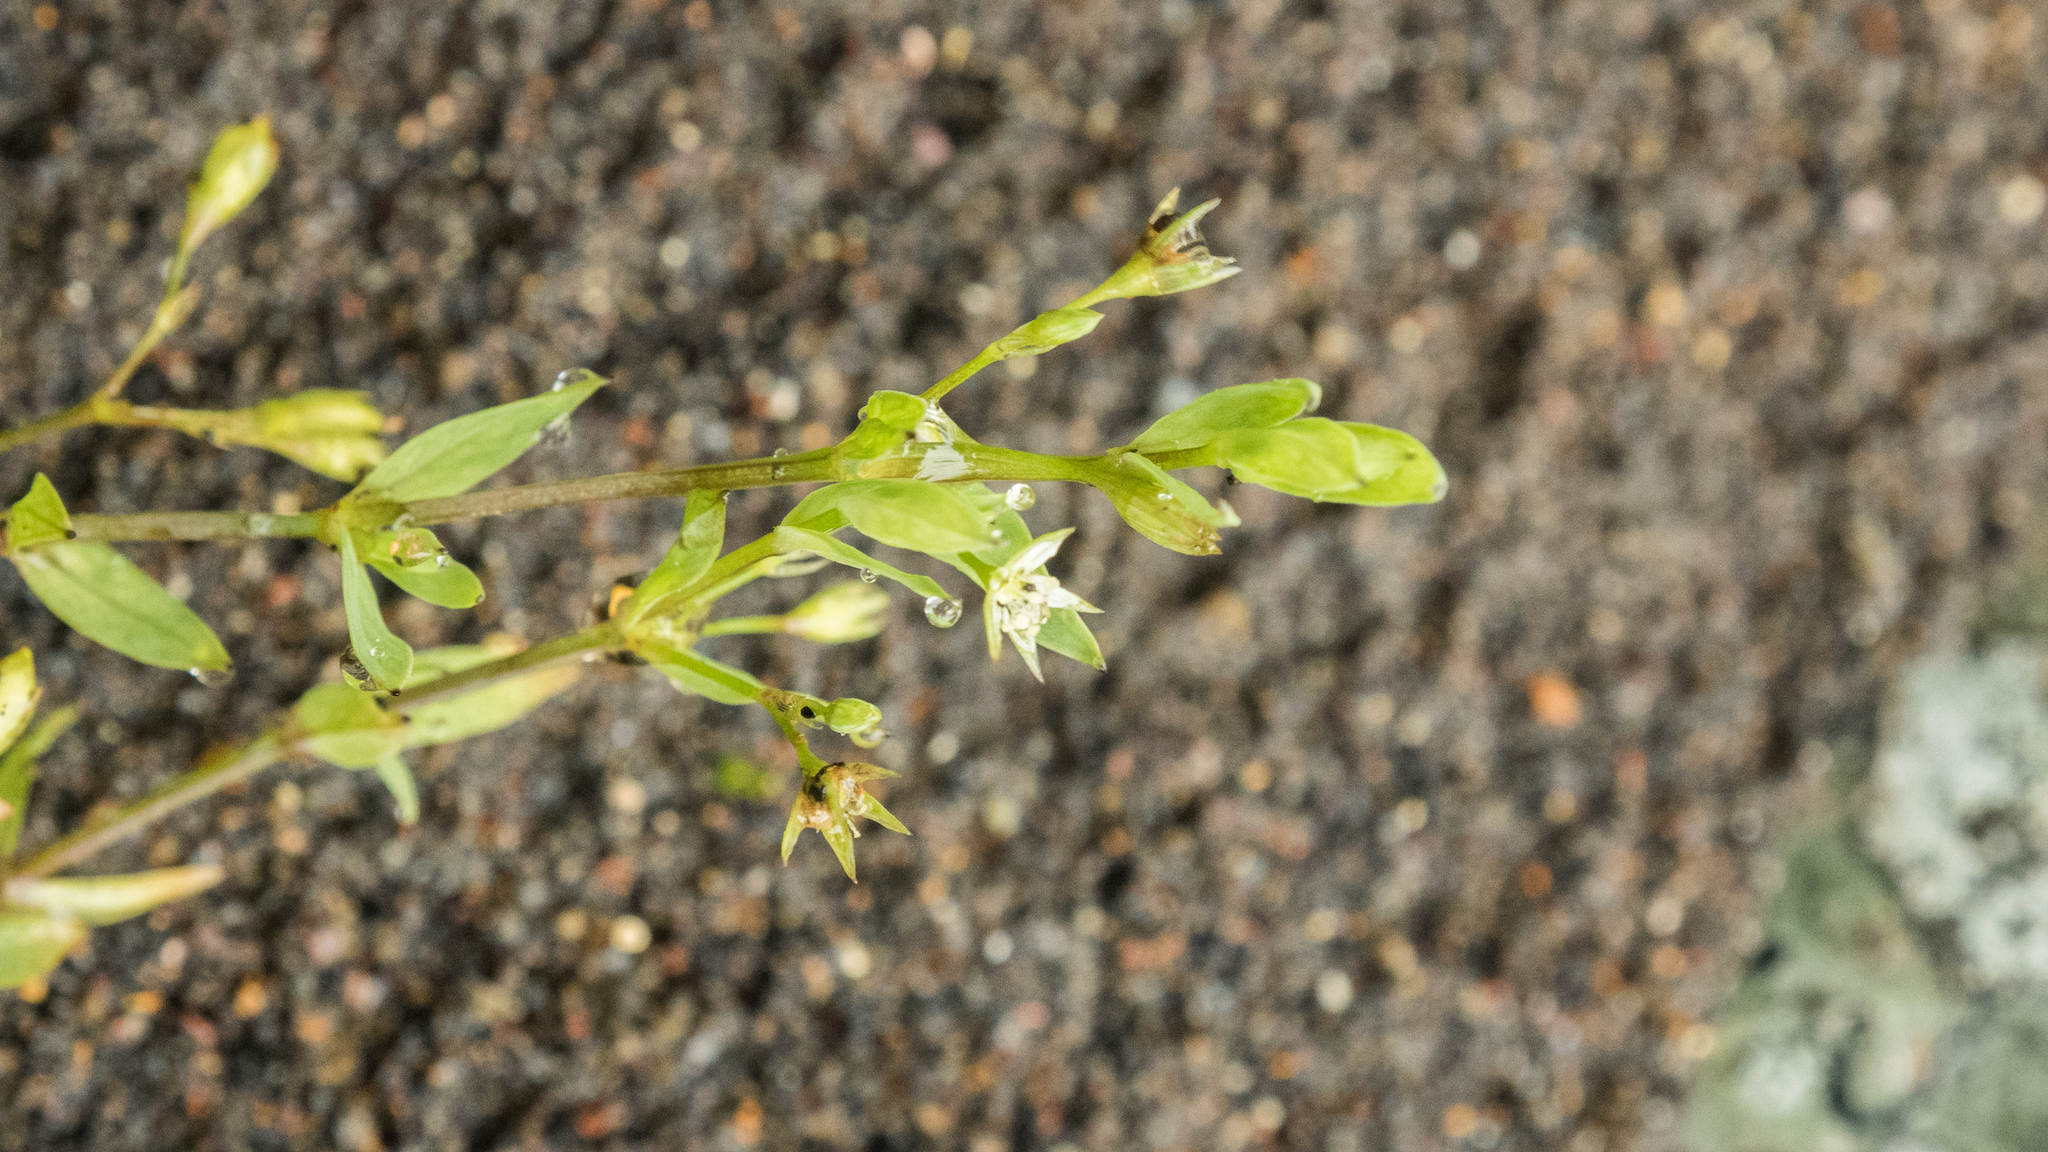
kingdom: Plantae
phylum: Tracheophyta
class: Magnoliopsida
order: Caryophyllales
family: Caryophyllaceae
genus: Stellaria
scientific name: Stellaria alsine
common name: Bog stitchwort
